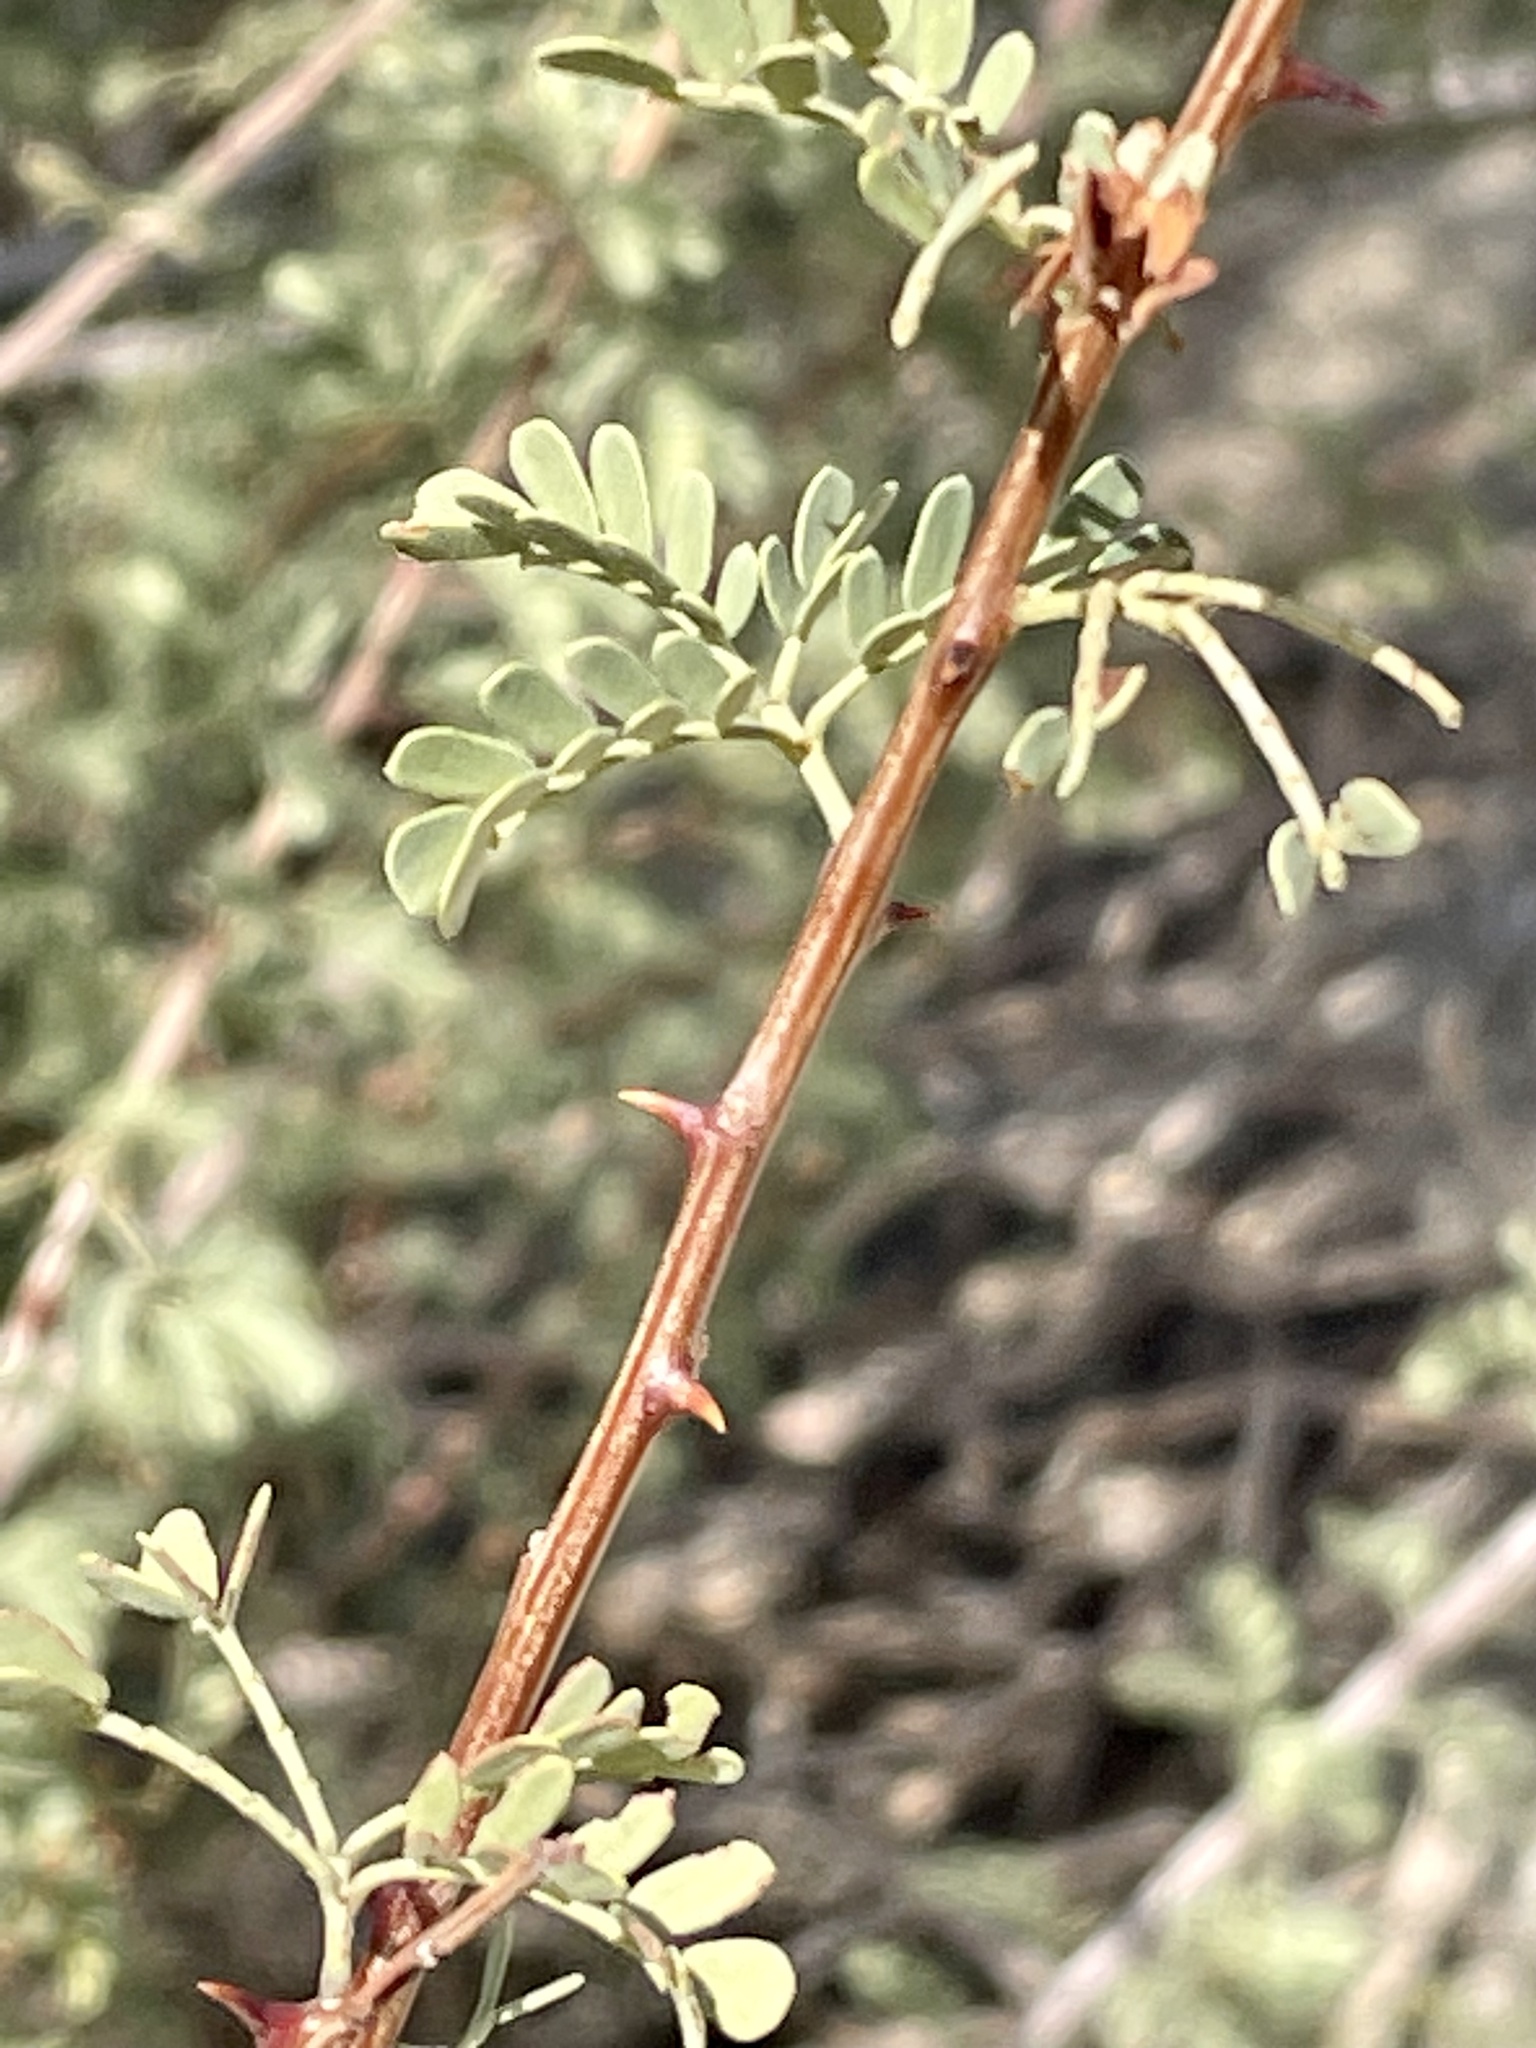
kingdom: Plantae
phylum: Tracheophyta
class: Magnoliopsida
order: Fabales
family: Fabaceae
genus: Senegalia
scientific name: Senegalia greggii
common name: Texas-mimosa
